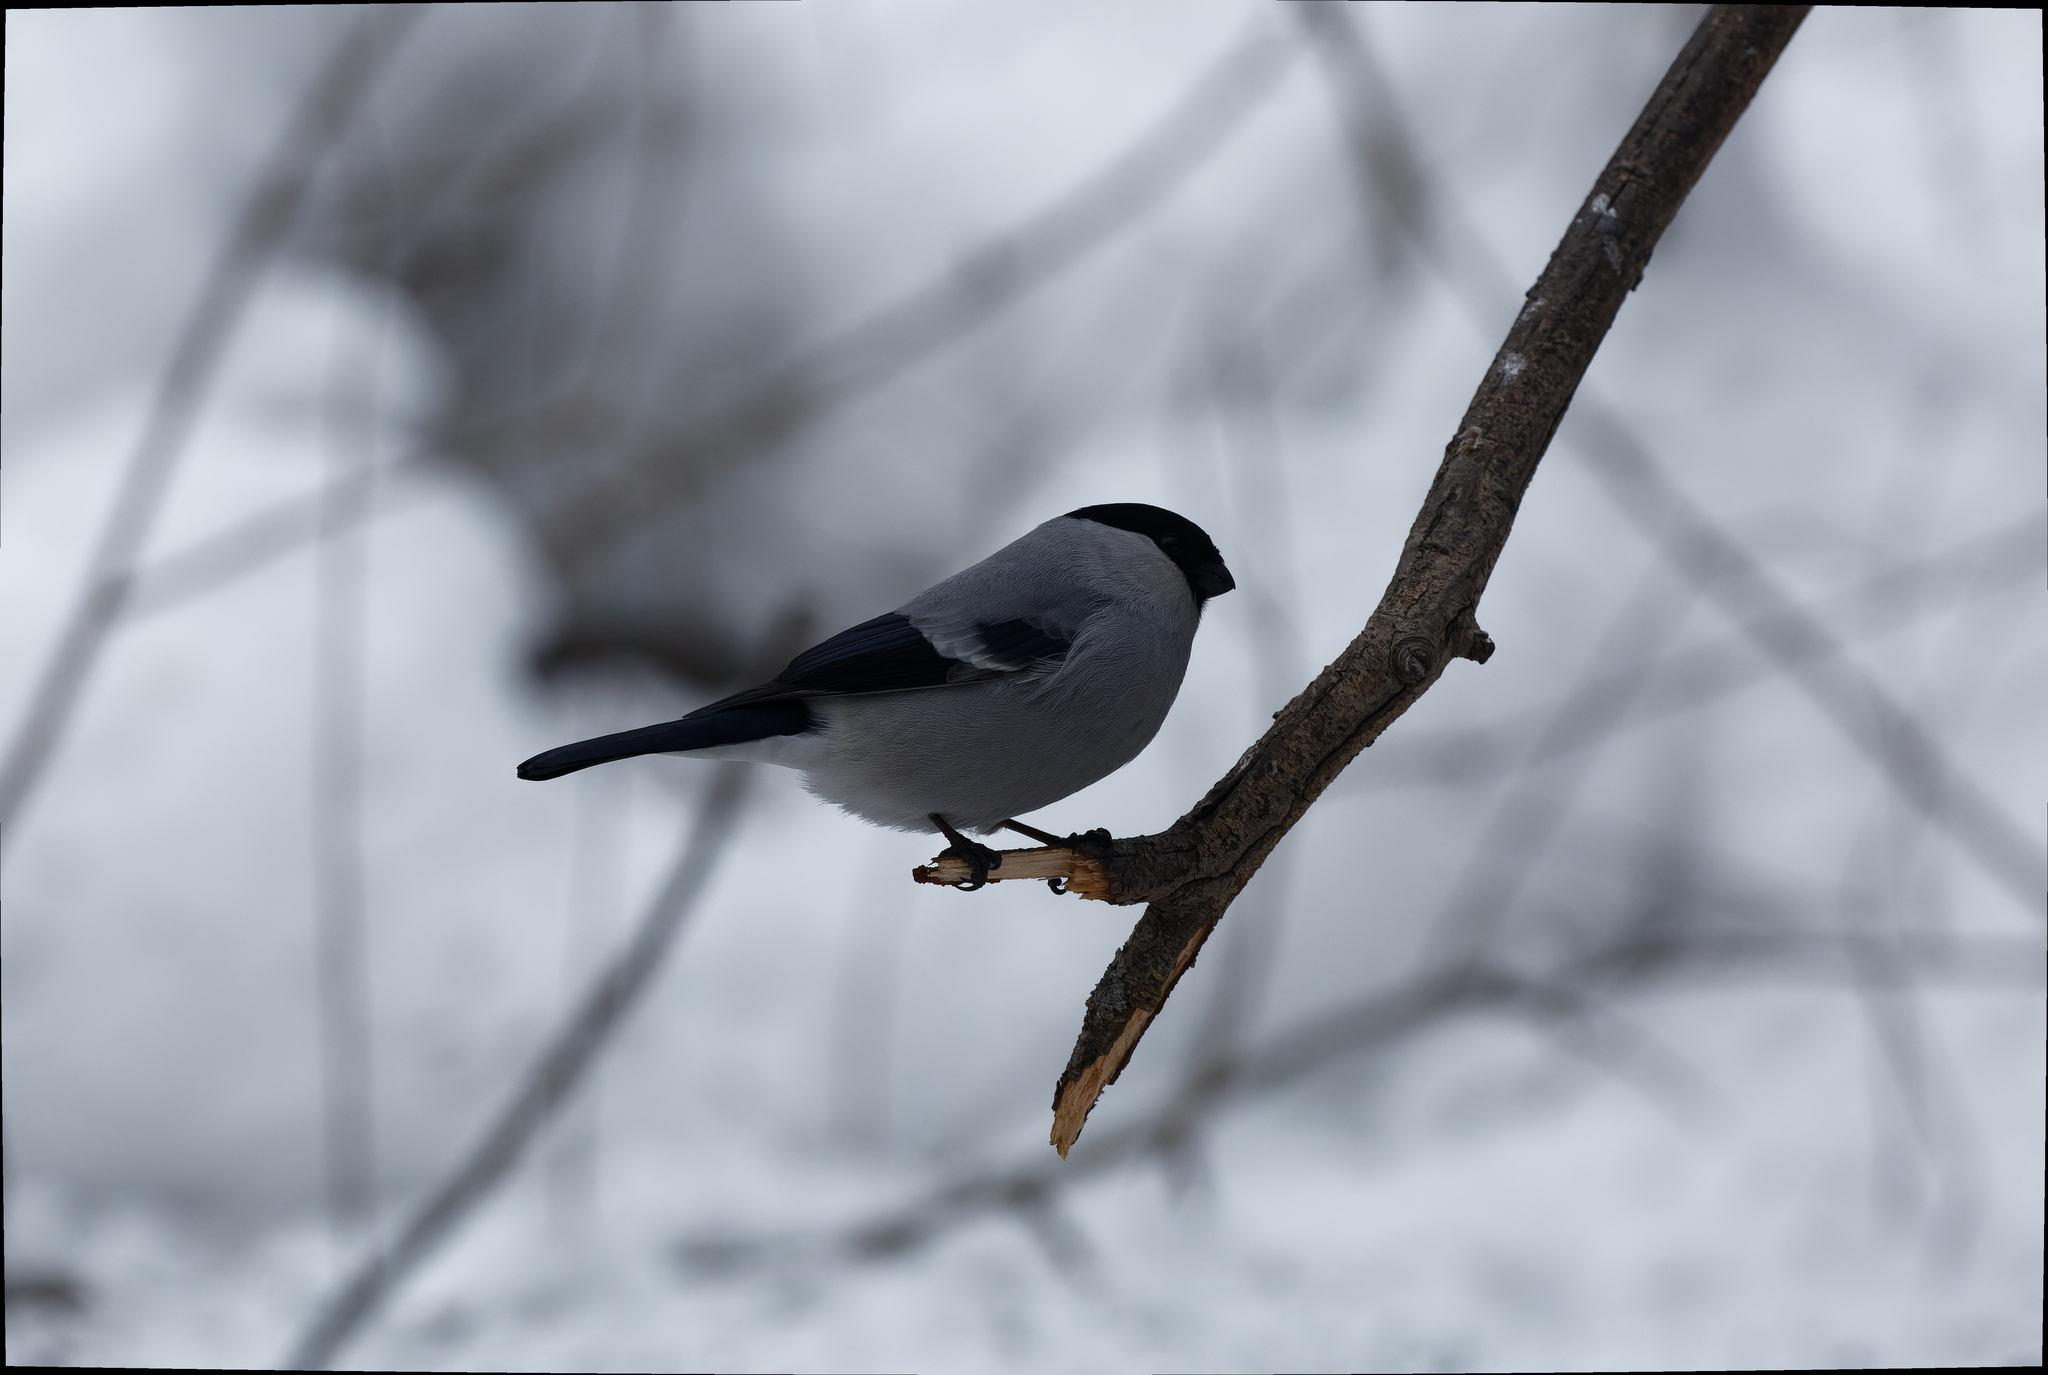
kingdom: Animalia
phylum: Chordata
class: Aves
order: Passeriformes
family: Fringillidae
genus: Pyrrhula
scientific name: Pyrrhula pyrrhula
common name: Eurasian bullfinch
